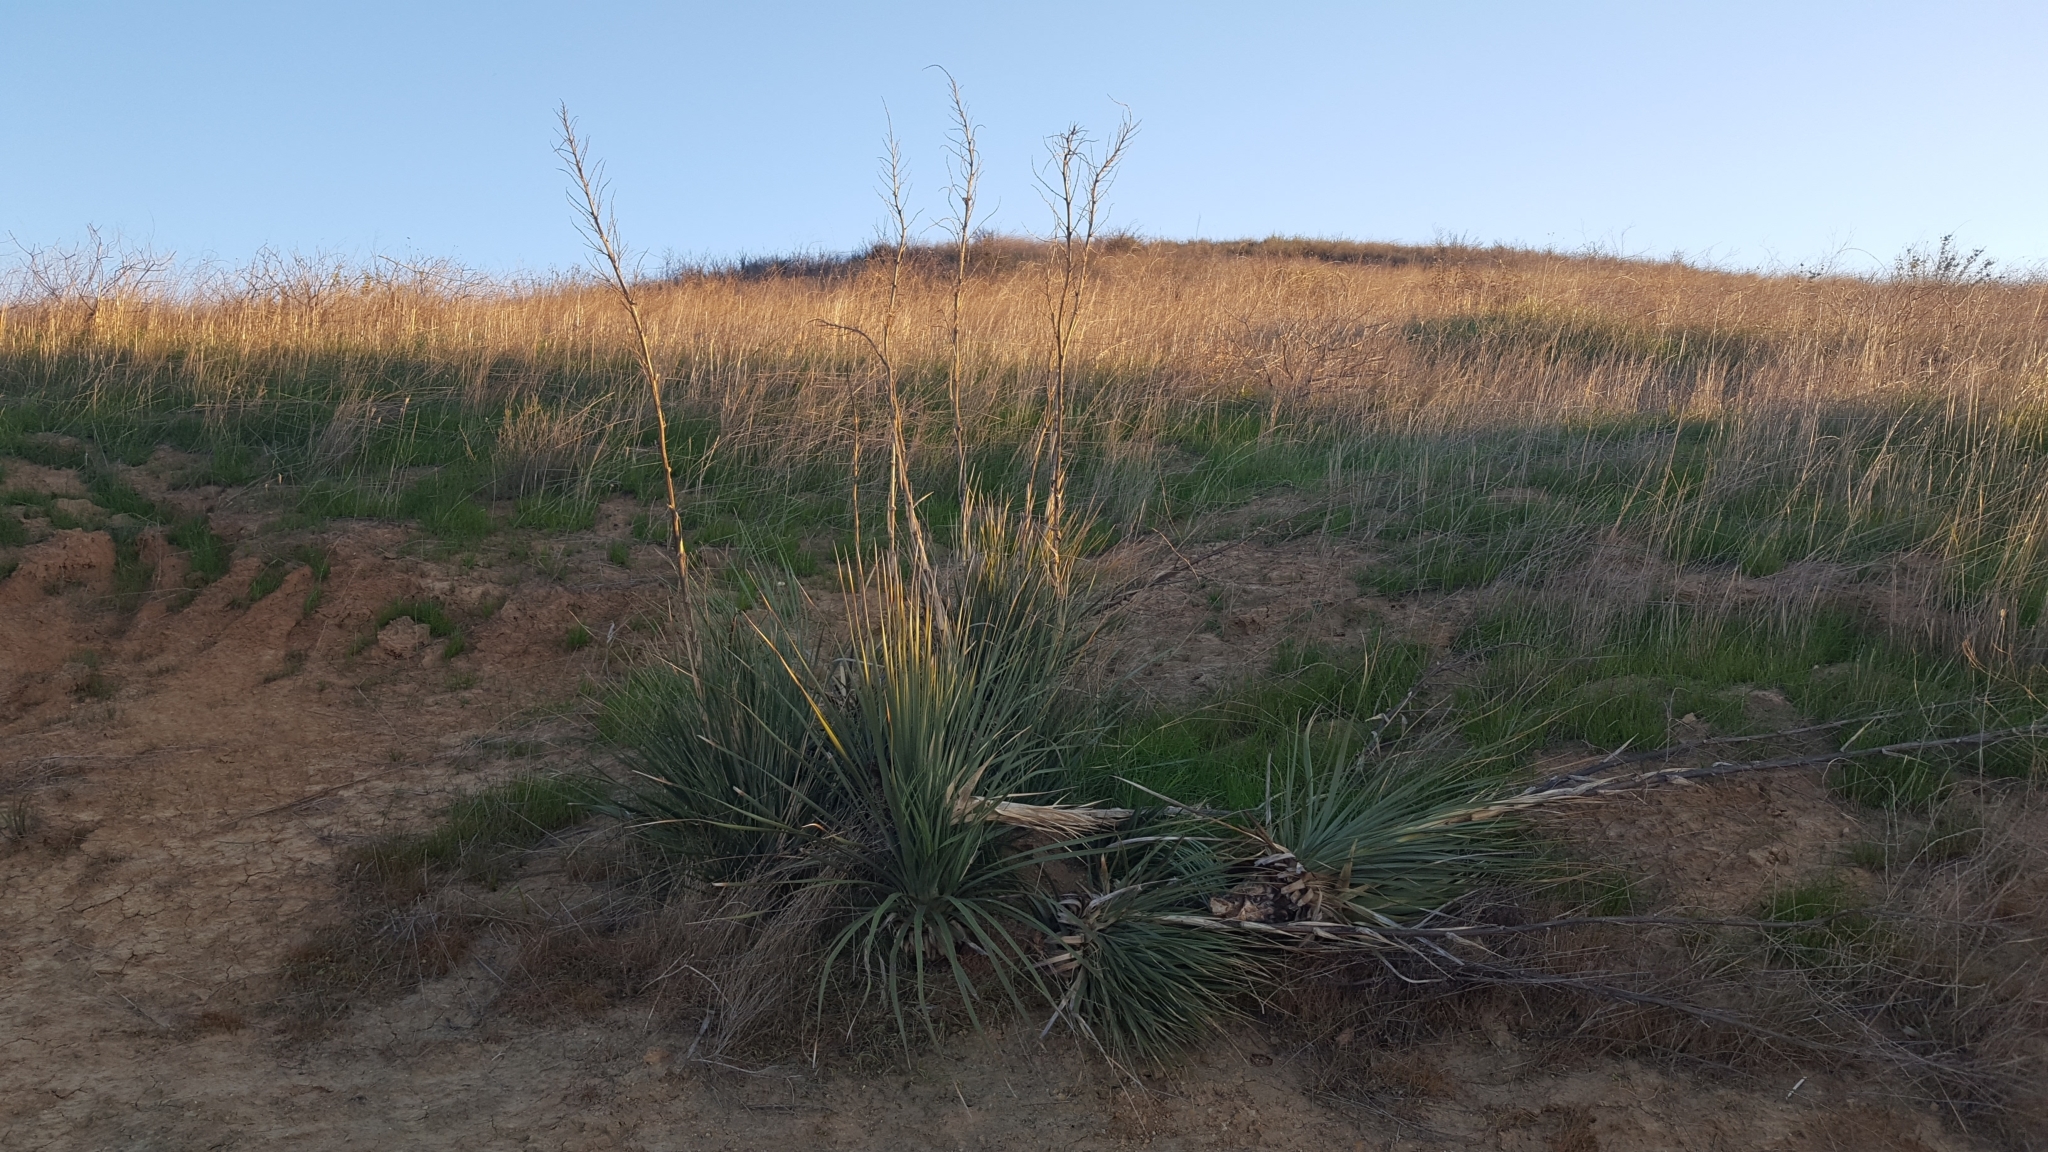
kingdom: Plantae
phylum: Tracheophyta
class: Liliopsida
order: Asparagales
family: Asparagaceae
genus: Hesperoyucca
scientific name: Hesperoyucca whipplei
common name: Our lord's-candle
